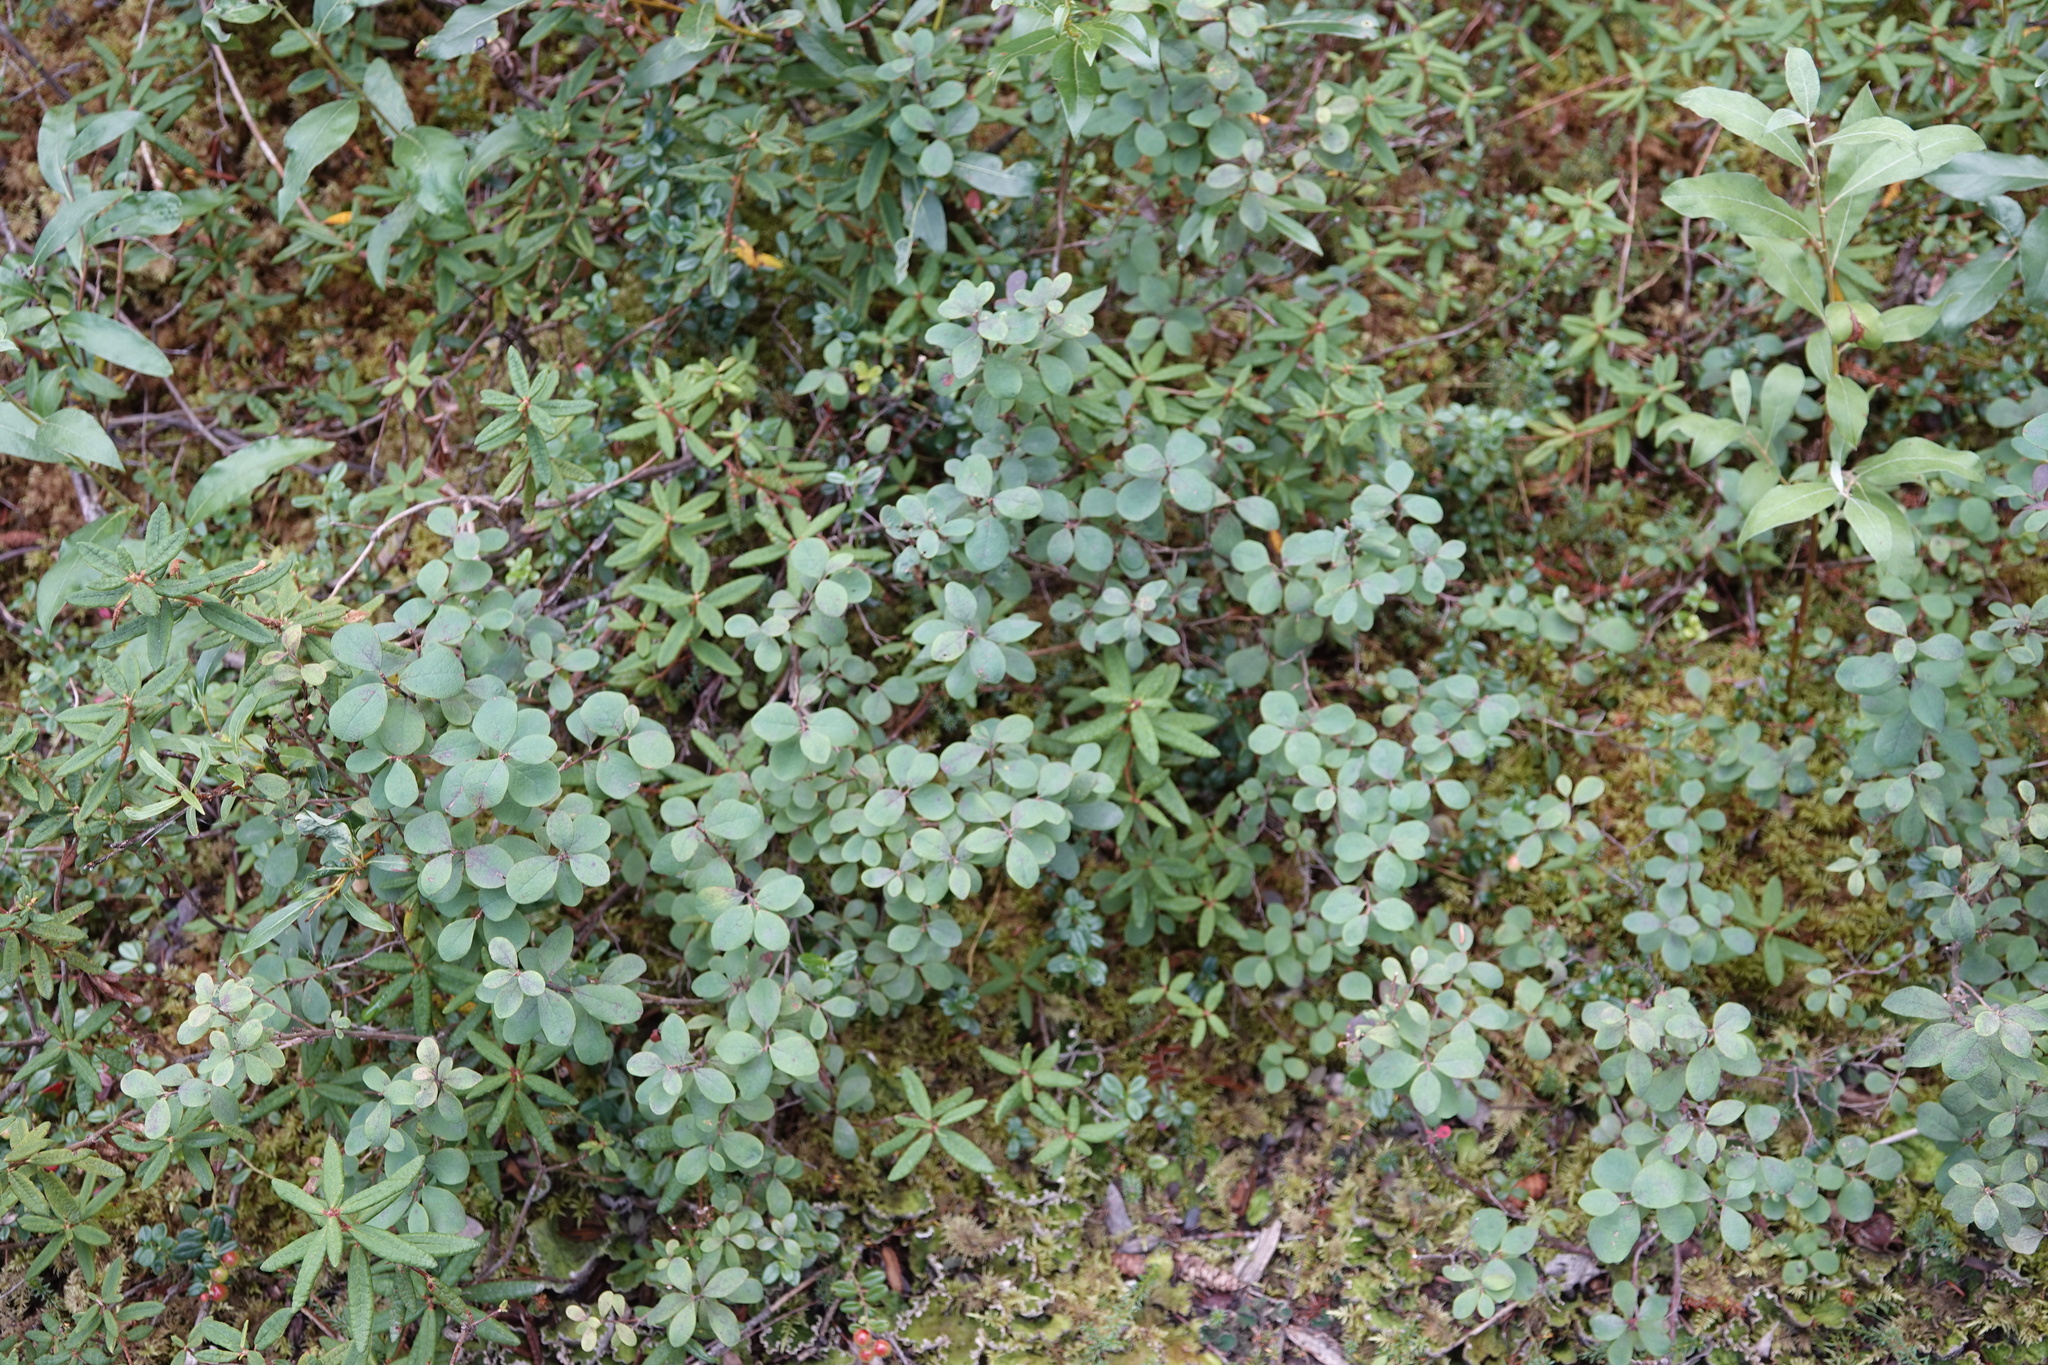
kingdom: Plantae
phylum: Tracheophyta
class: Magnoliopsida
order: Ericales
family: Ericaceae
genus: Vaccinium
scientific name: Vaccinium uliginosum
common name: Bog bilberry
